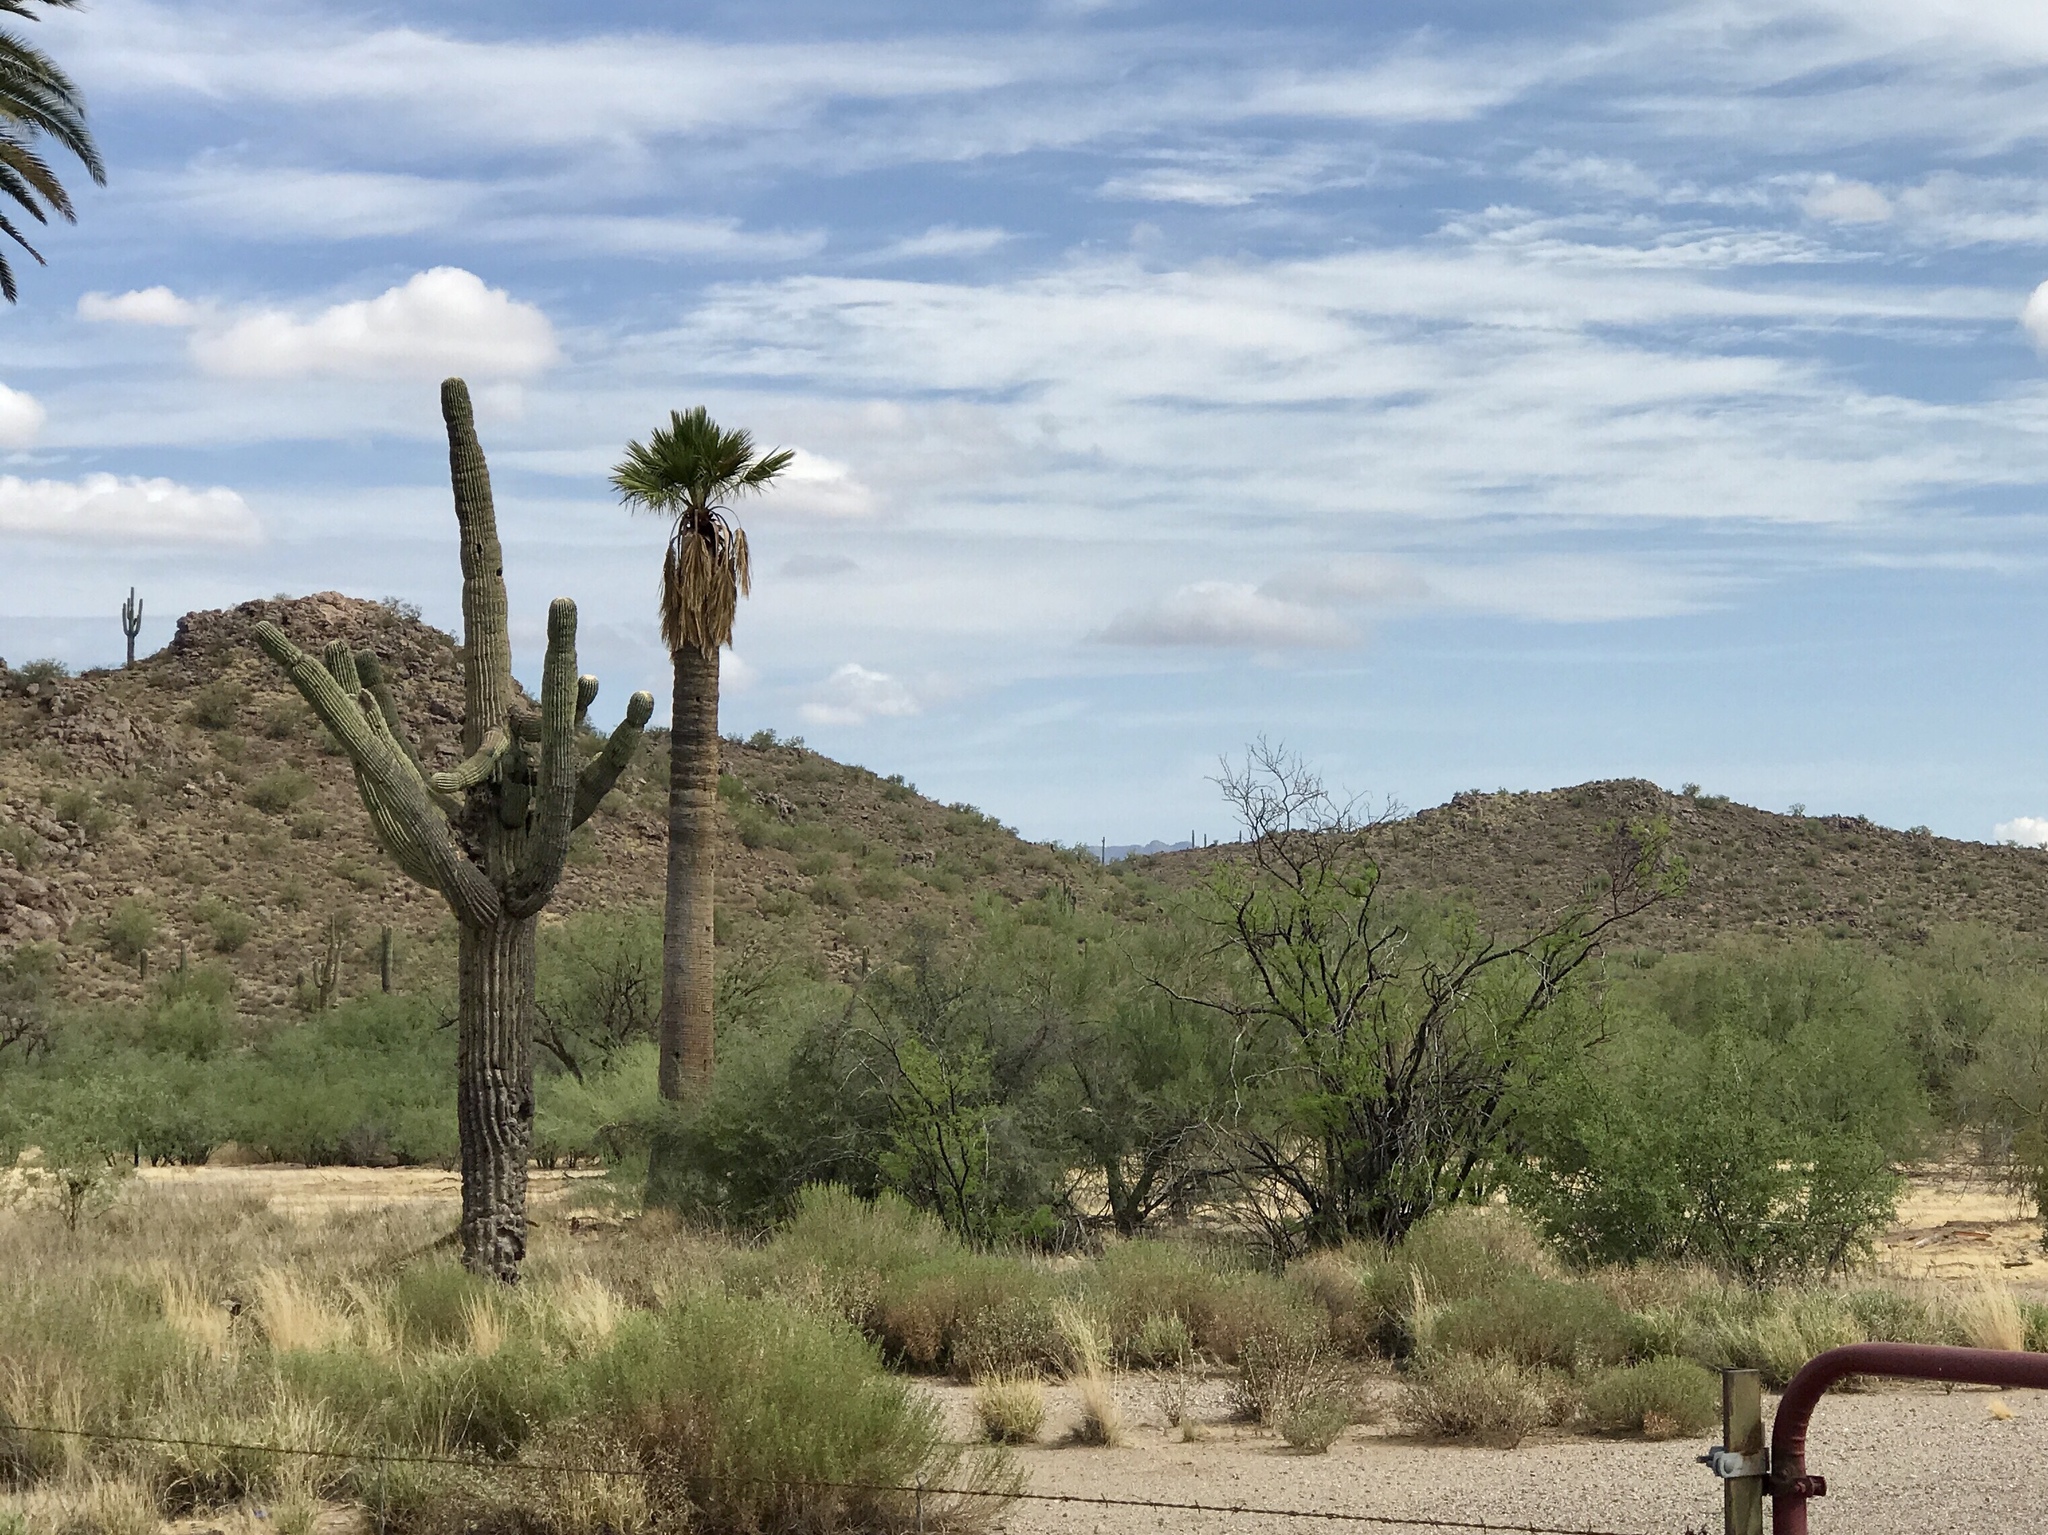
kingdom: Plantae
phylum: Tracheophyta
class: Magnoliopsida
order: Caryophyllales
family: Cactaceae
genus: Carnegiea
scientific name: Carnegiea gigantea
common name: Saguaro
